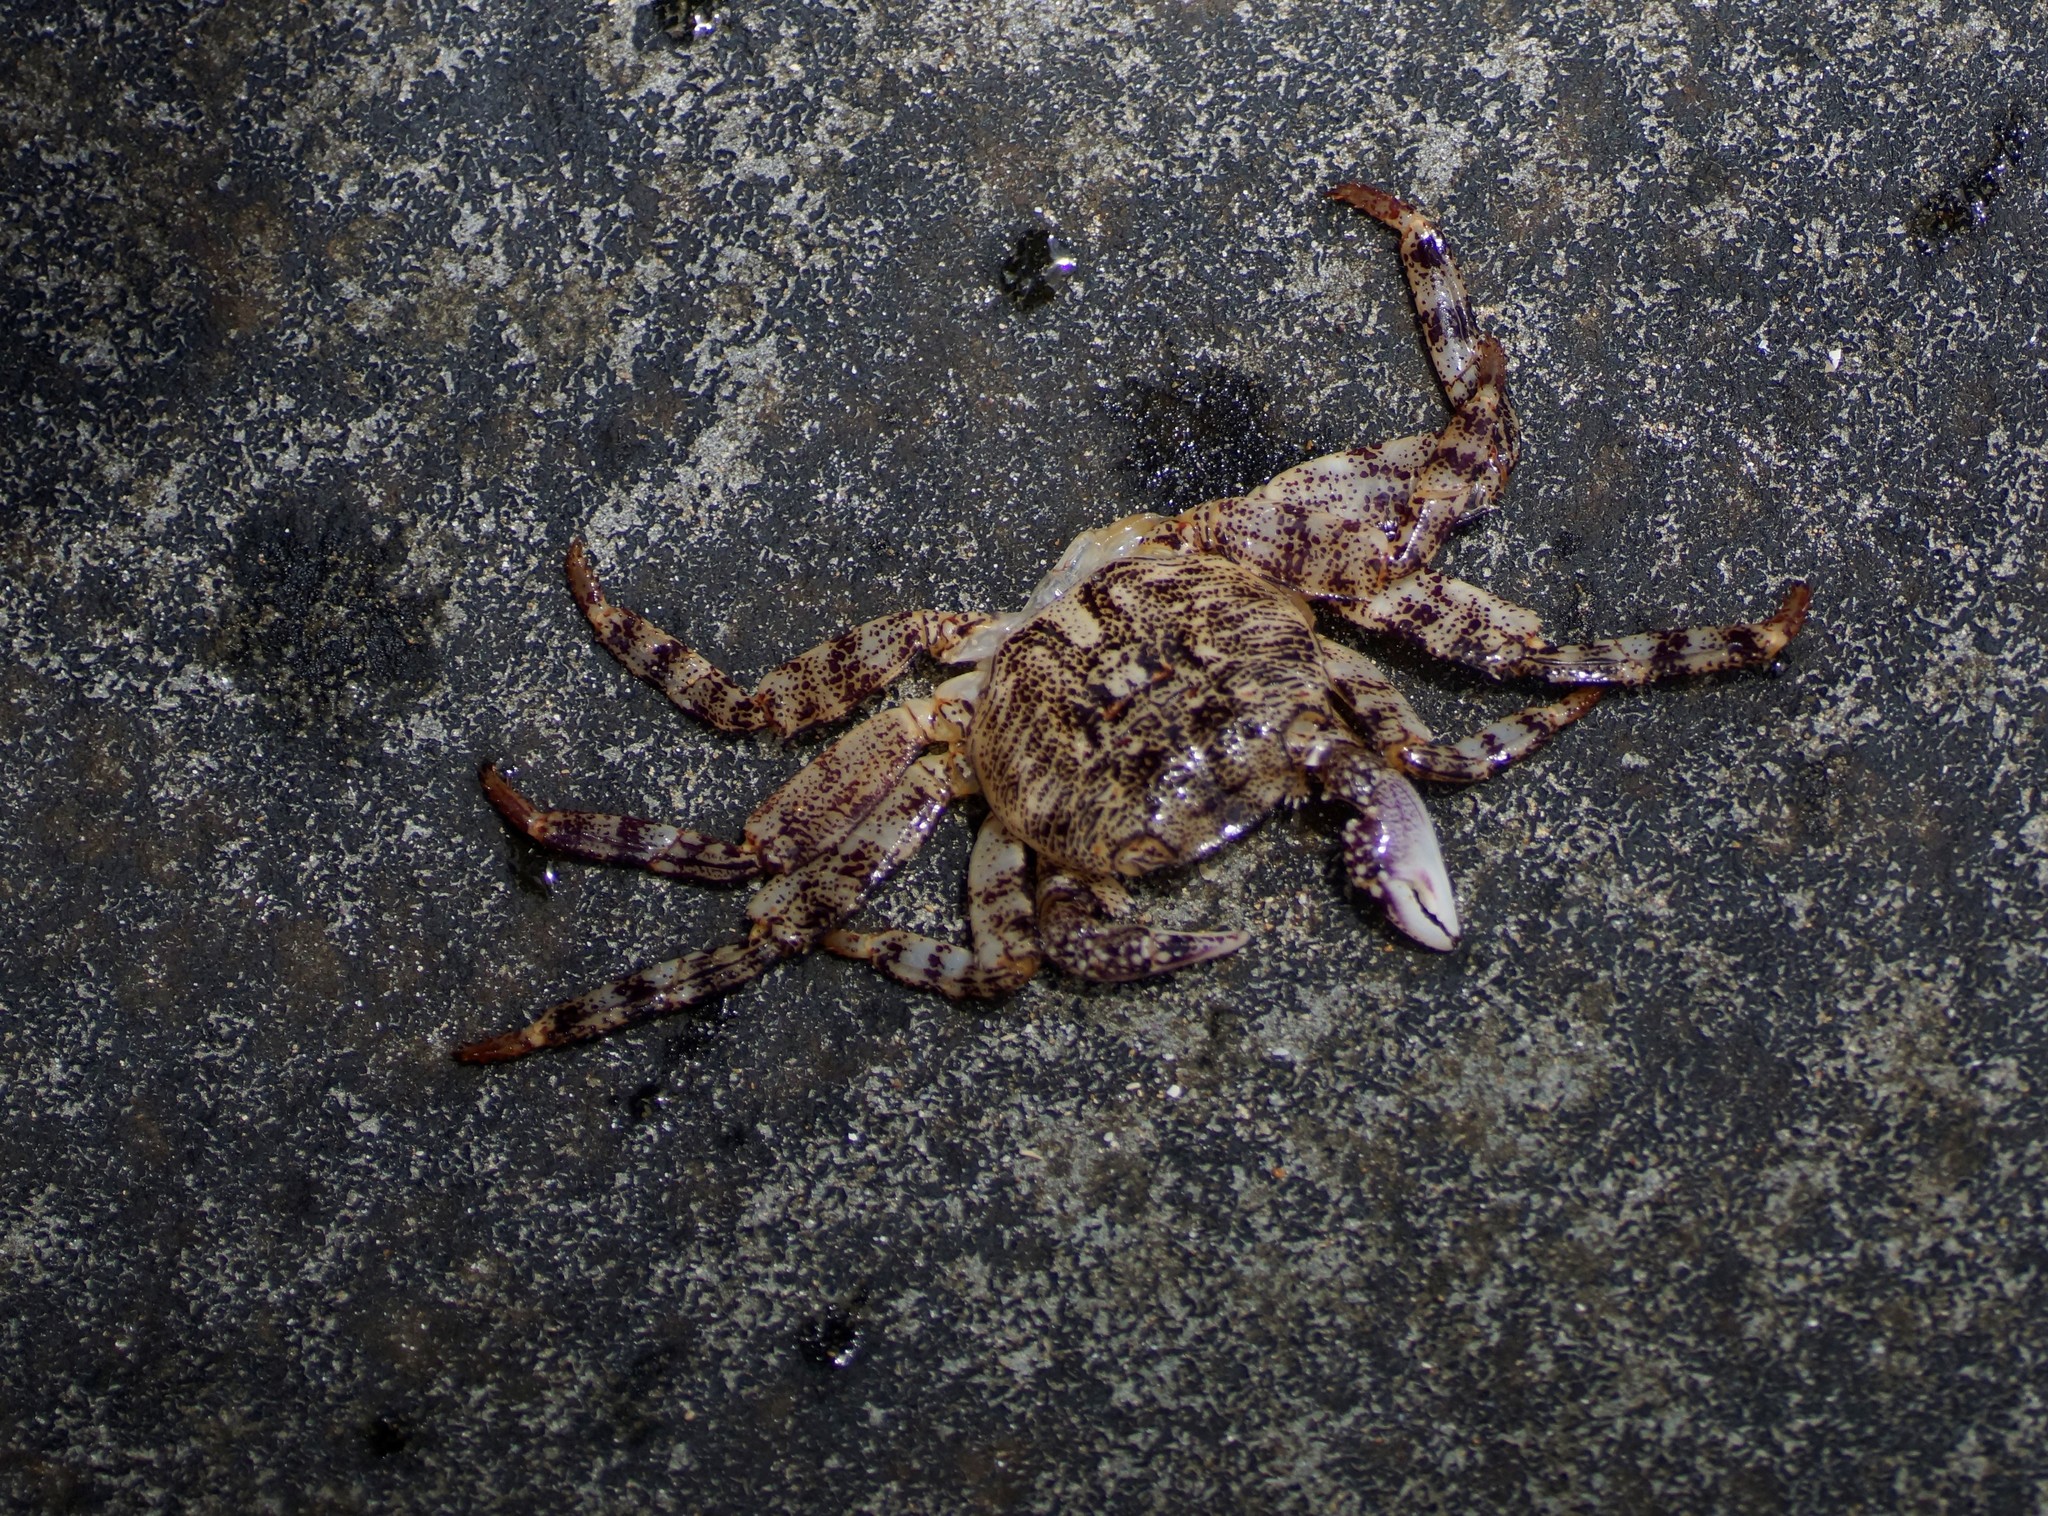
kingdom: Animalia
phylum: Arthropoda
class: Malacostraca
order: Decapoda
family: Grapsidae
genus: Leptograpsus
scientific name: Leptograpsus variegatus
